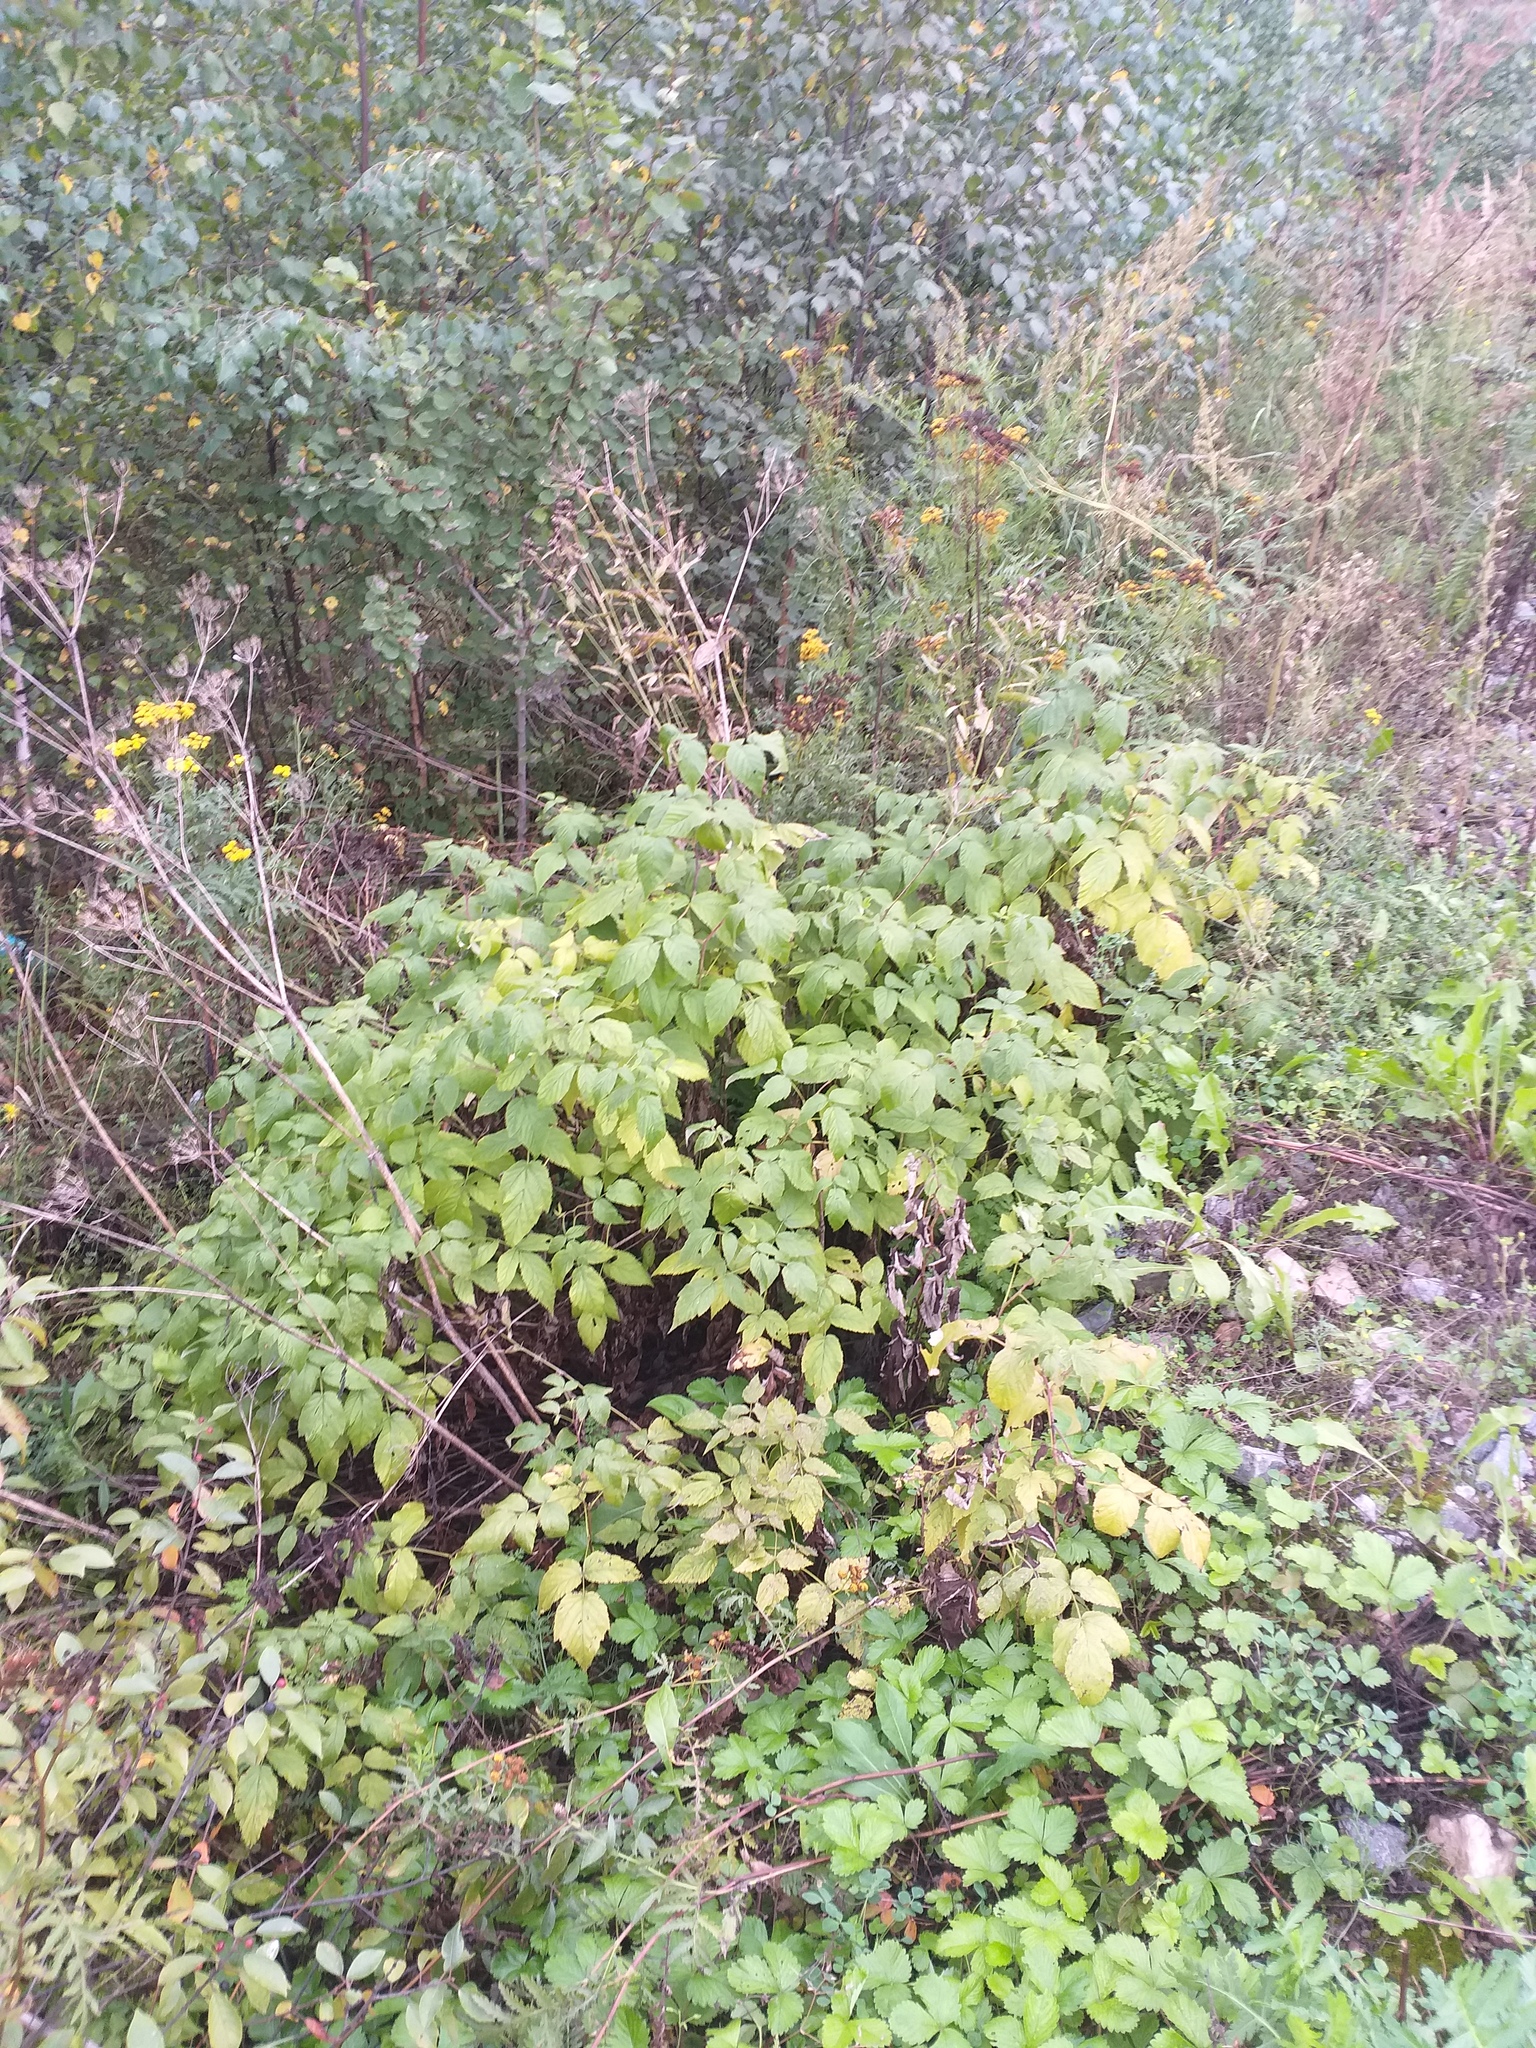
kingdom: Plantae
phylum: Tracheophyta
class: Magnoliopsida
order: Rosales
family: Rosaceae
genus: Rubus
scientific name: Rubus idaeus
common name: Raspberry
